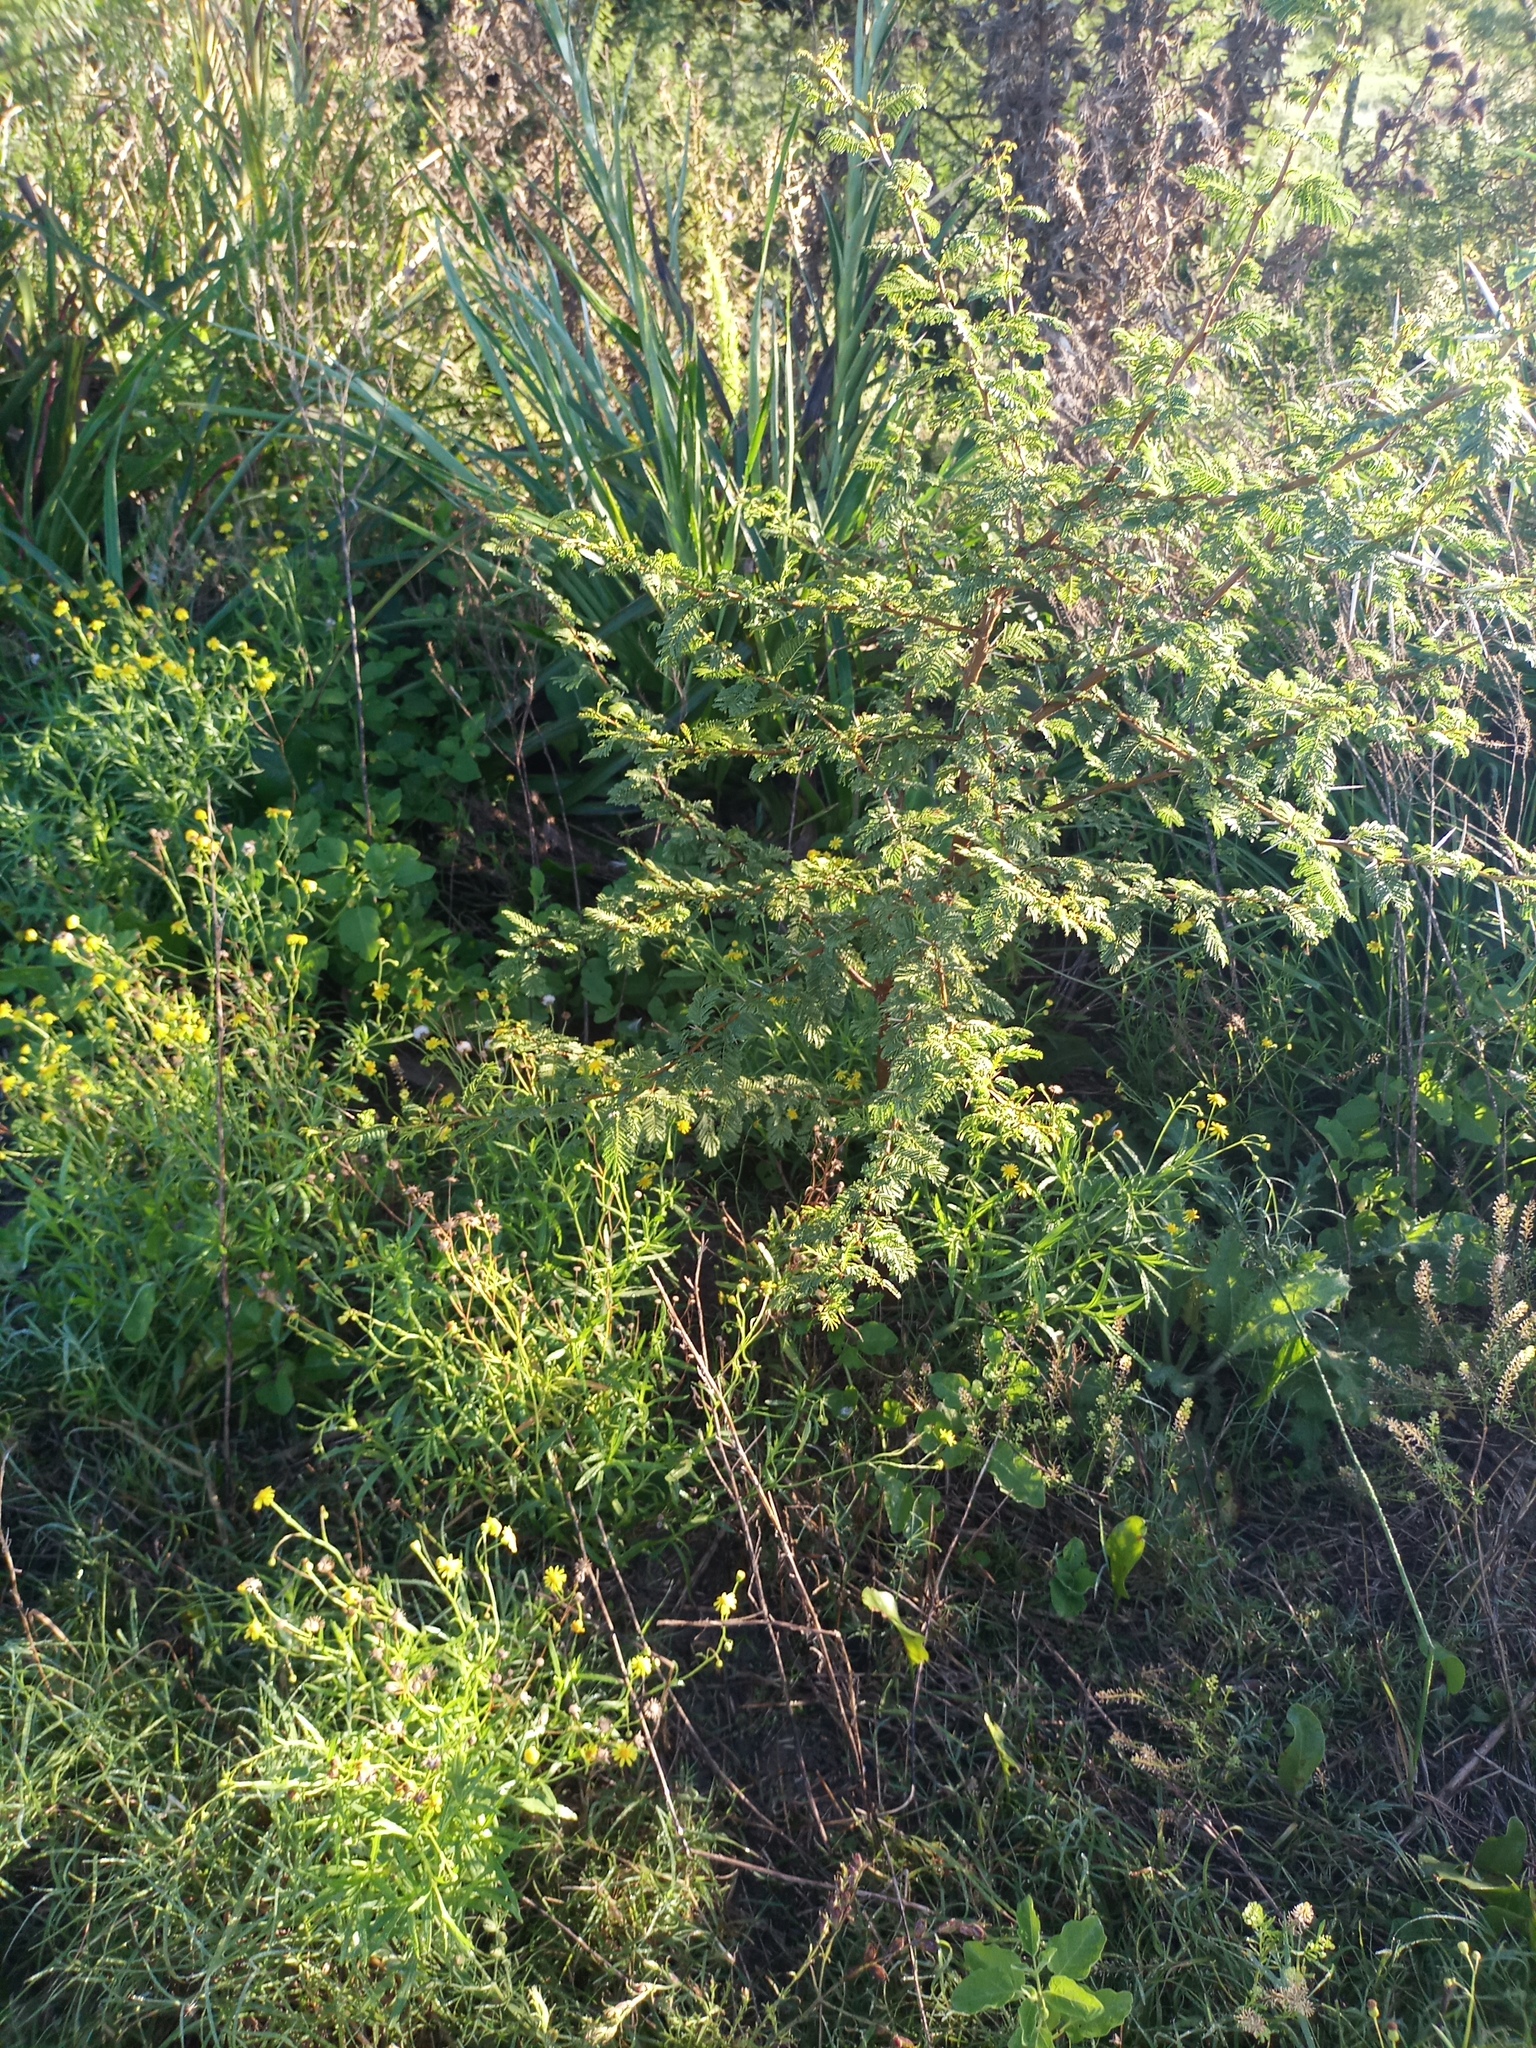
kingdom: Plantae
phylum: Tracheophyta
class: Magnoliopsida
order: Fabales
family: Fabaceae
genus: Vachellia
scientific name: Vachellia caven
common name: Roman cassie
